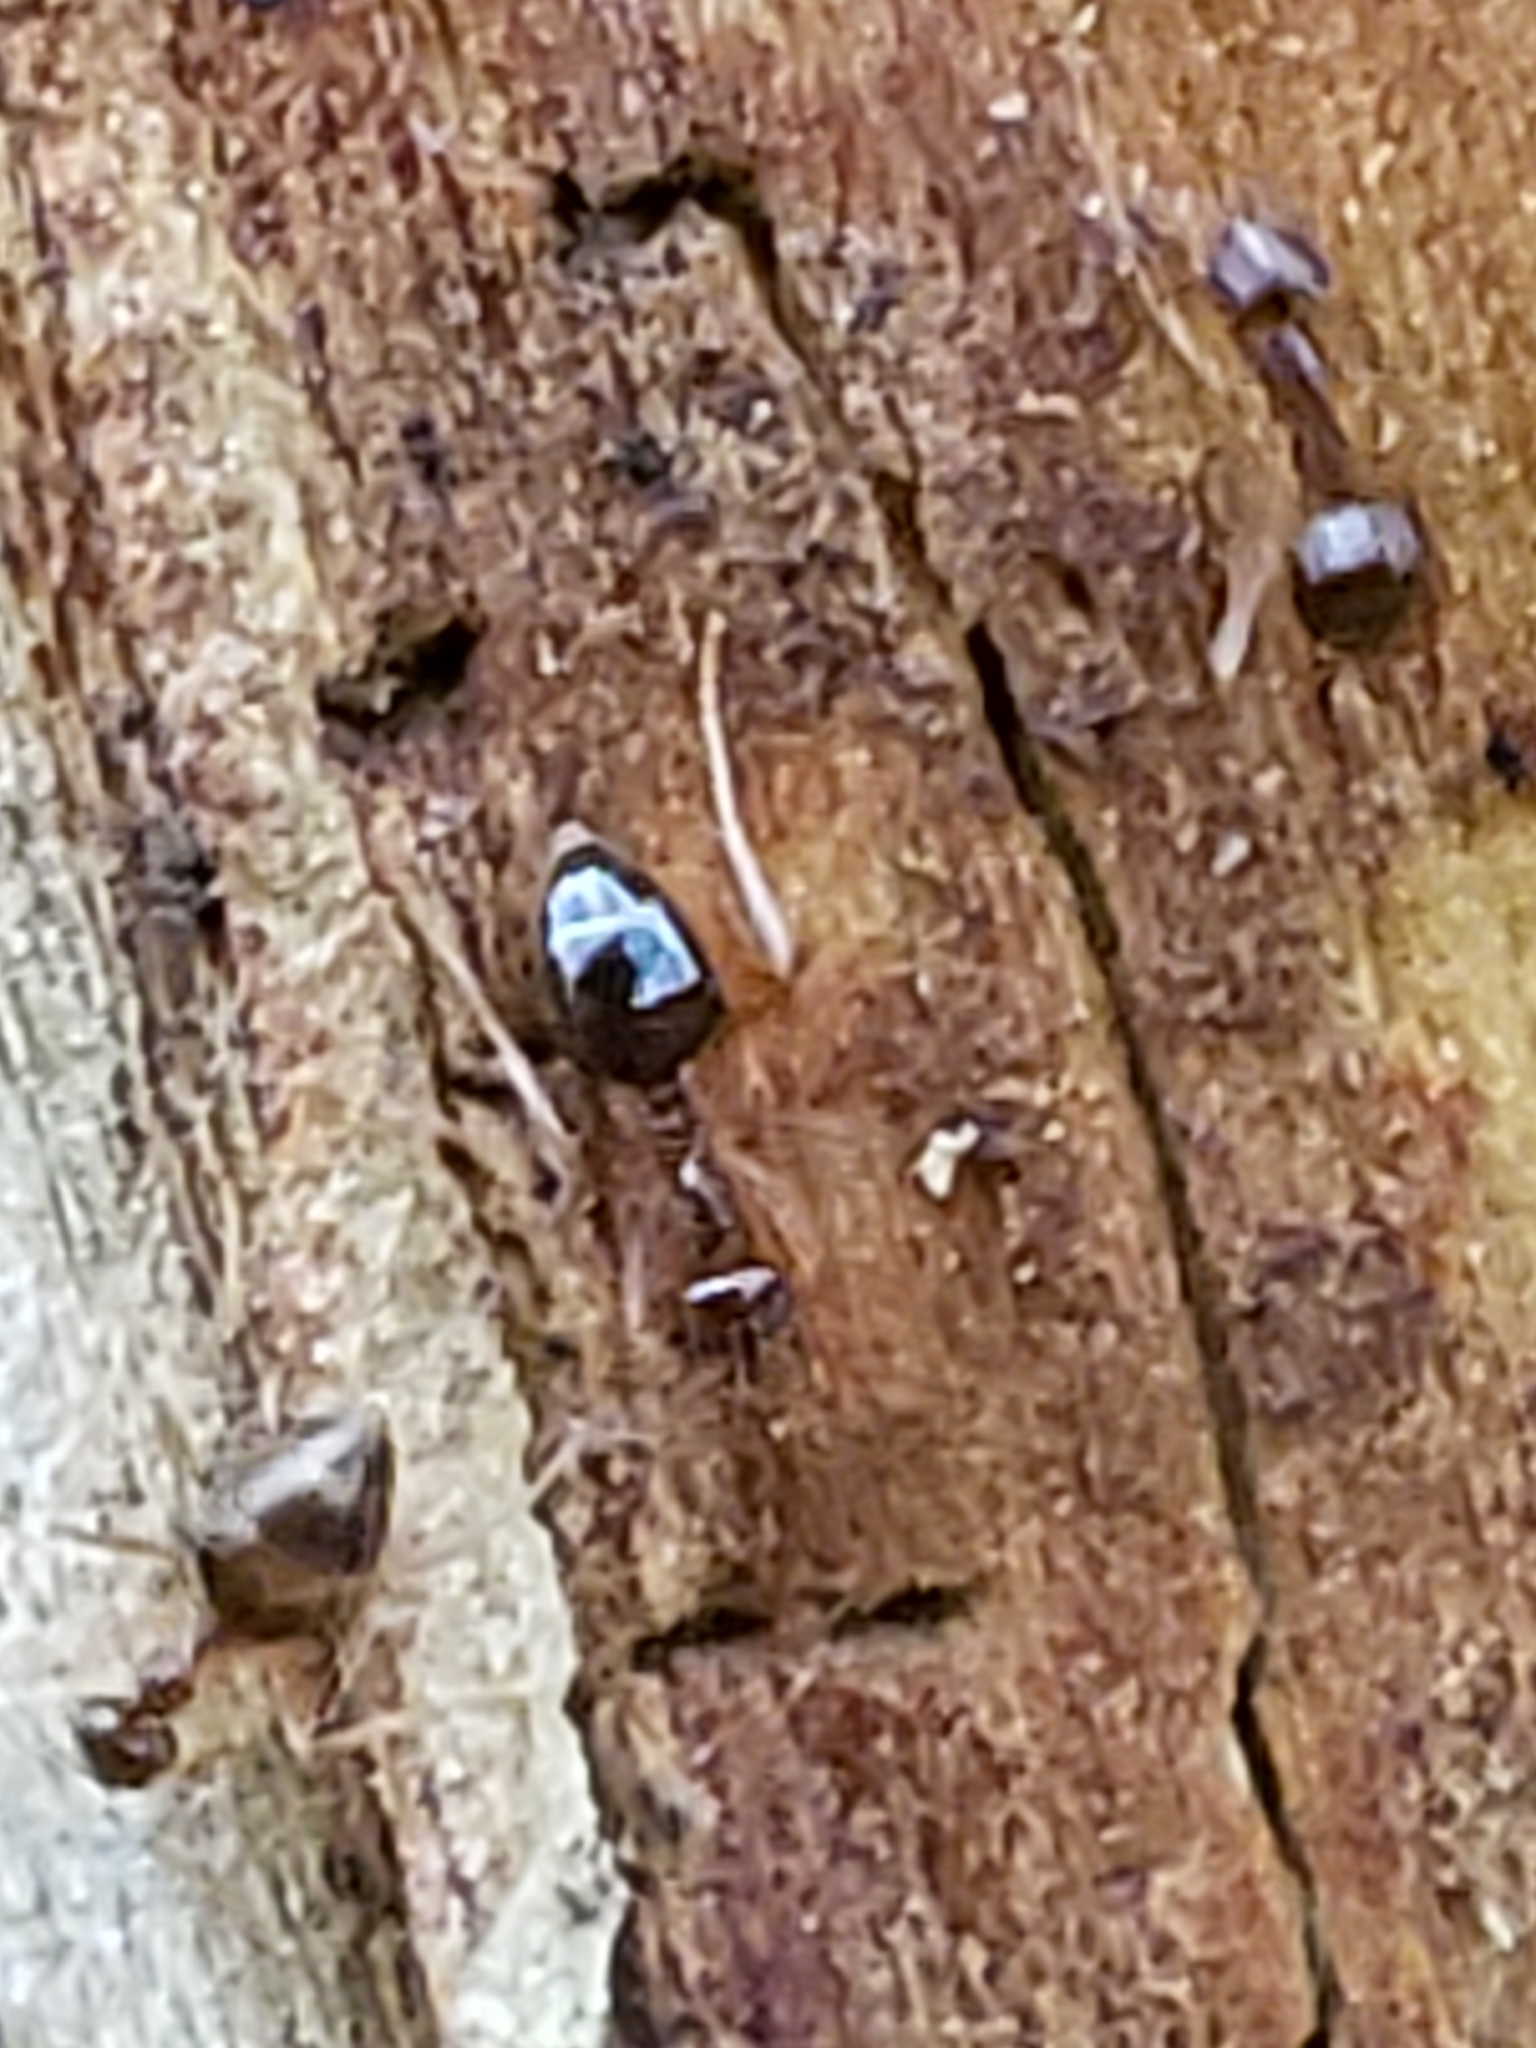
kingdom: Animalia
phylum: Arthropoda
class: Insecta
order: Hymenoptera
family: Formicidae
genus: Prenolepis
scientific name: Prenolepis imparis
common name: Small honey ant
